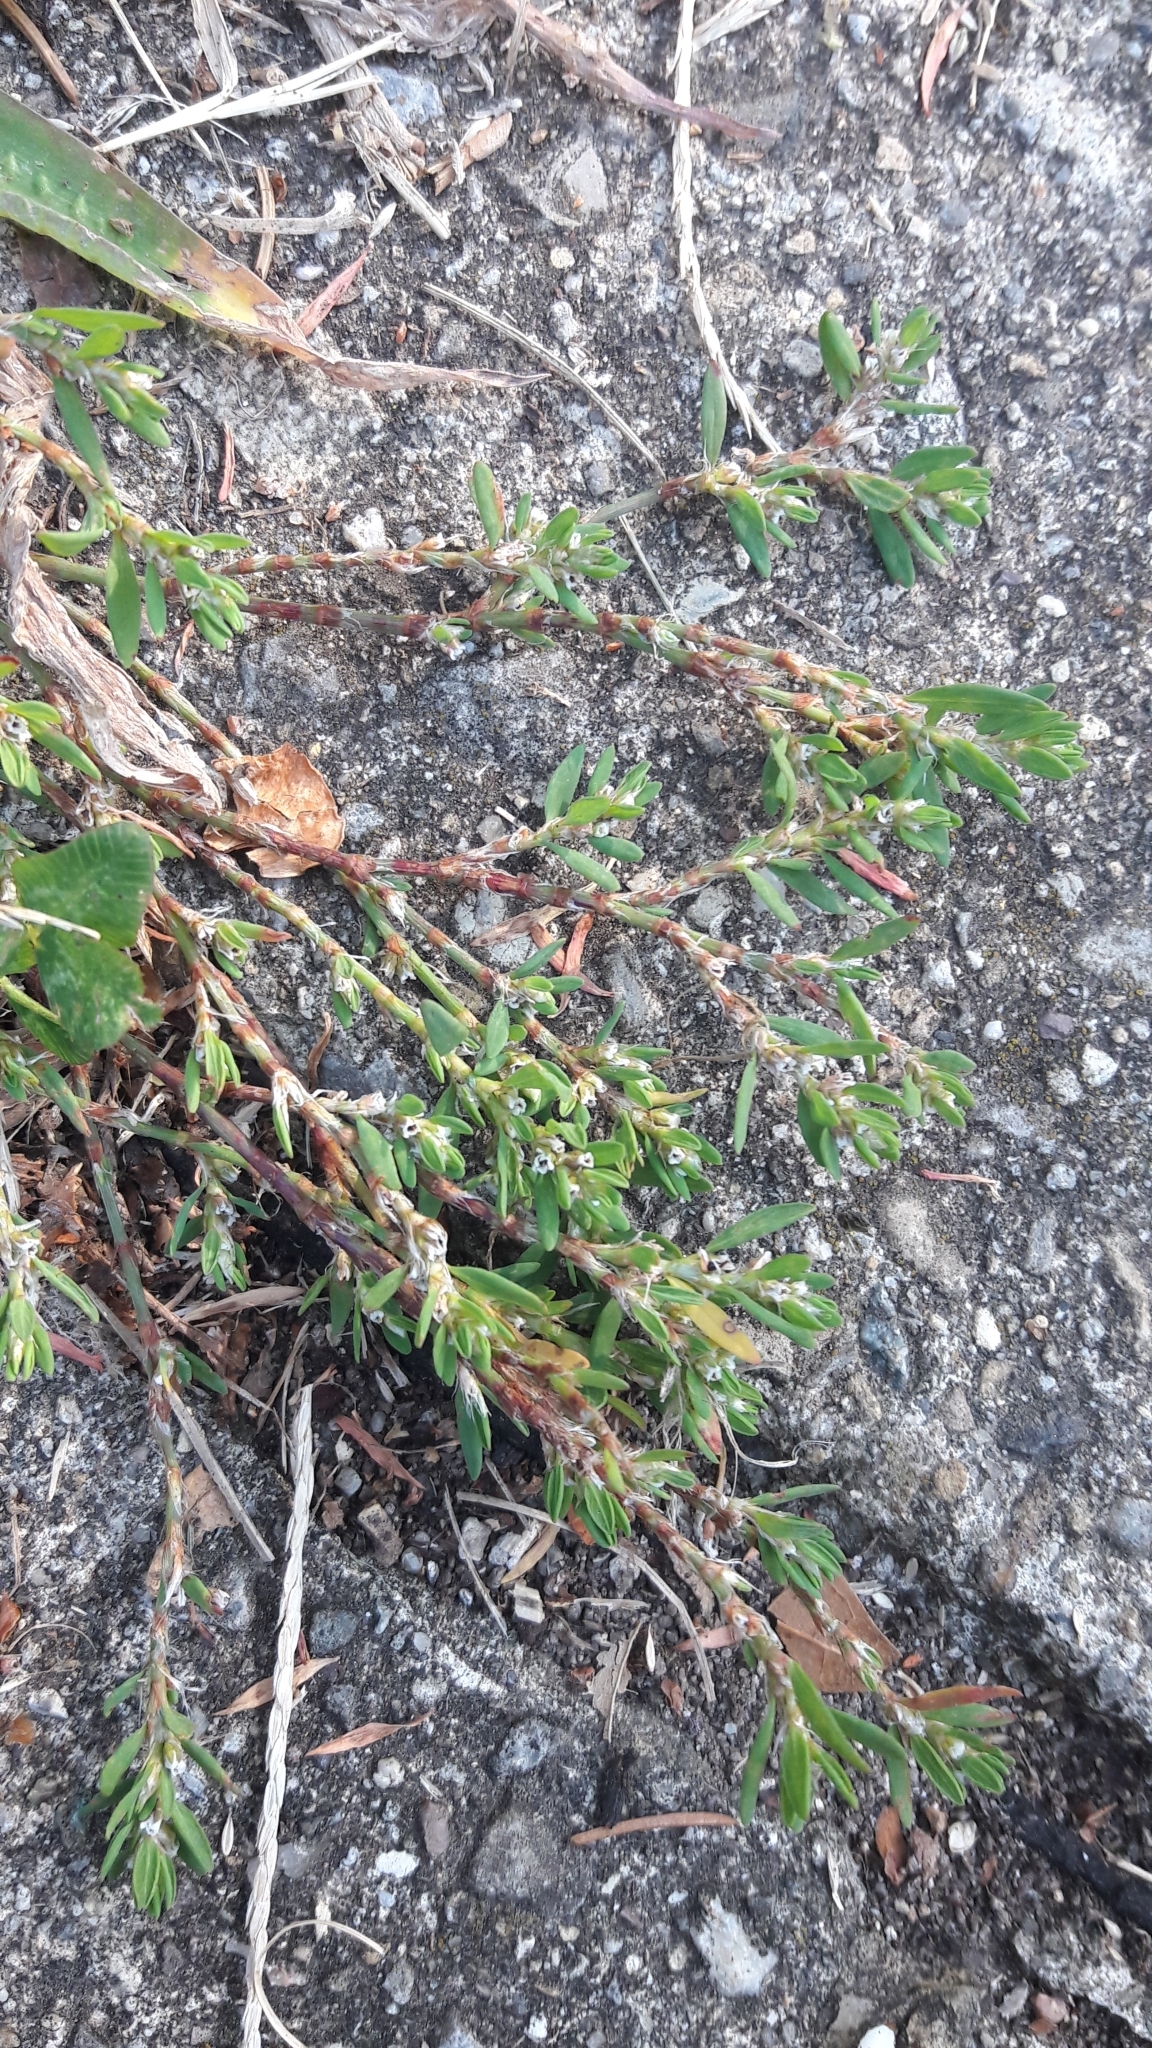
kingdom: Plantae
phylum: Tracheophyta
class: Magnoliopsida
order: Caryophyllales
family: Polygonaceae
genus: Polygonum
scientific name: Polygonum aviculare
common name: Prostrate knotweed
